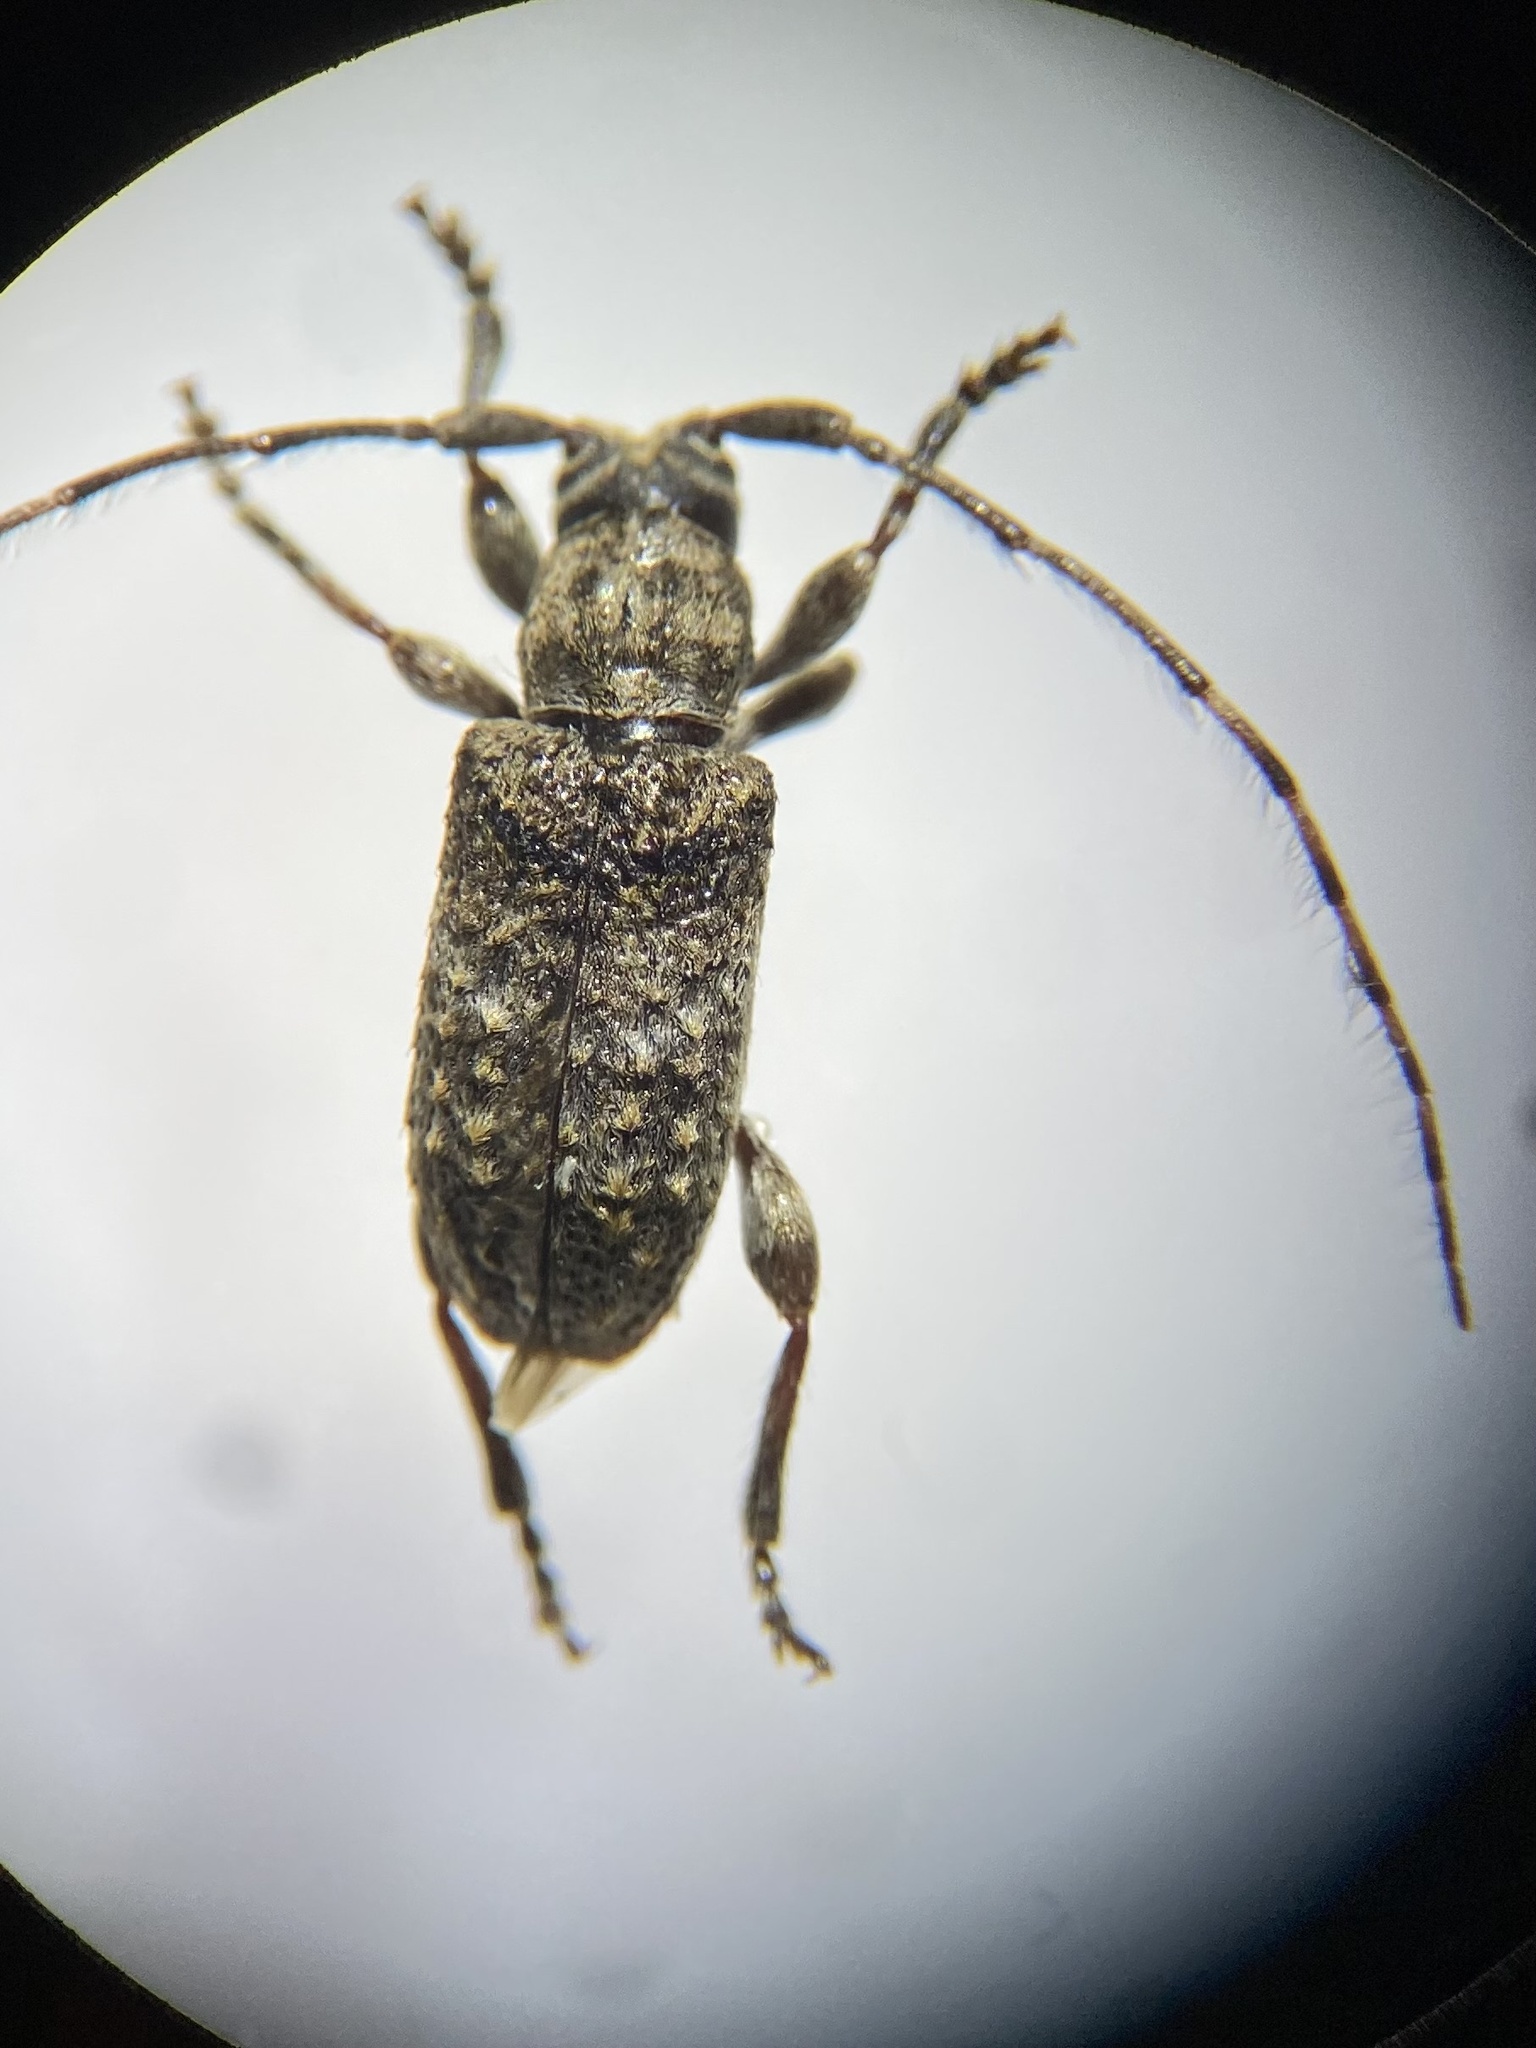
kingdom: Animalia
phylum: Arthropoda
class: Insecta
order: Coleoptera
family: Cerambycidae
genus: Ecyrus
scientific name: Ecyrus dasycerus
